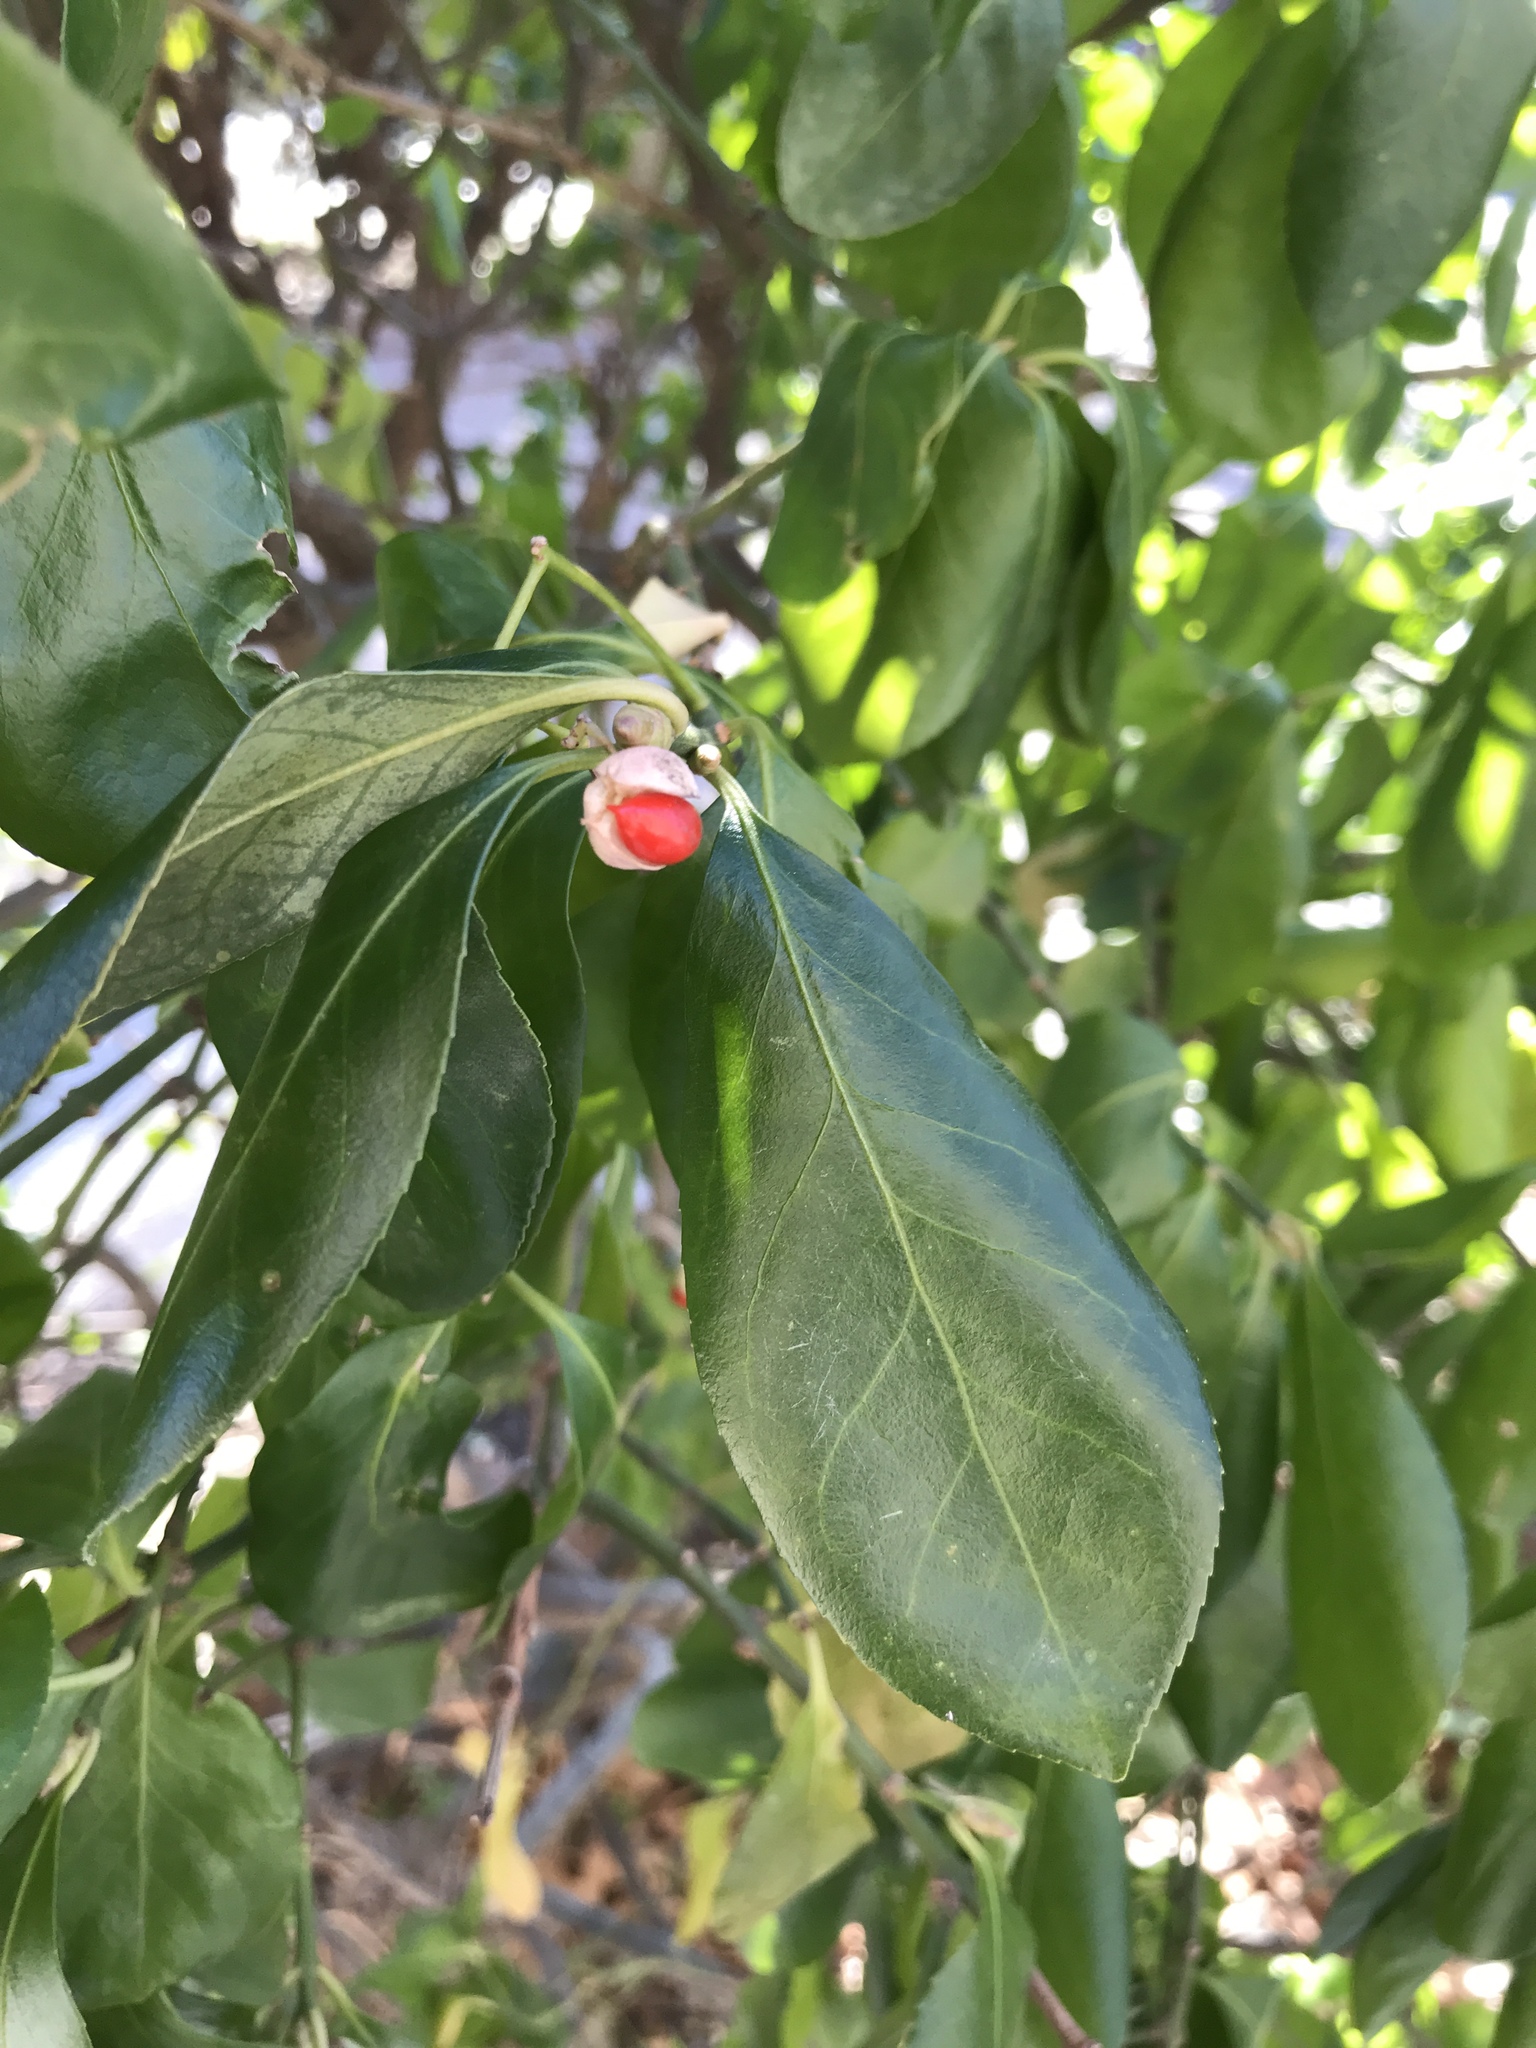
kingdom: Plantae
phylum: Tracheophyta
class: Magnoliopsida
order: Celastrales
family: Celastraceae
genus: Euonymus
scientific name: Euonymus fortunei
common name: Climbing euonymus
